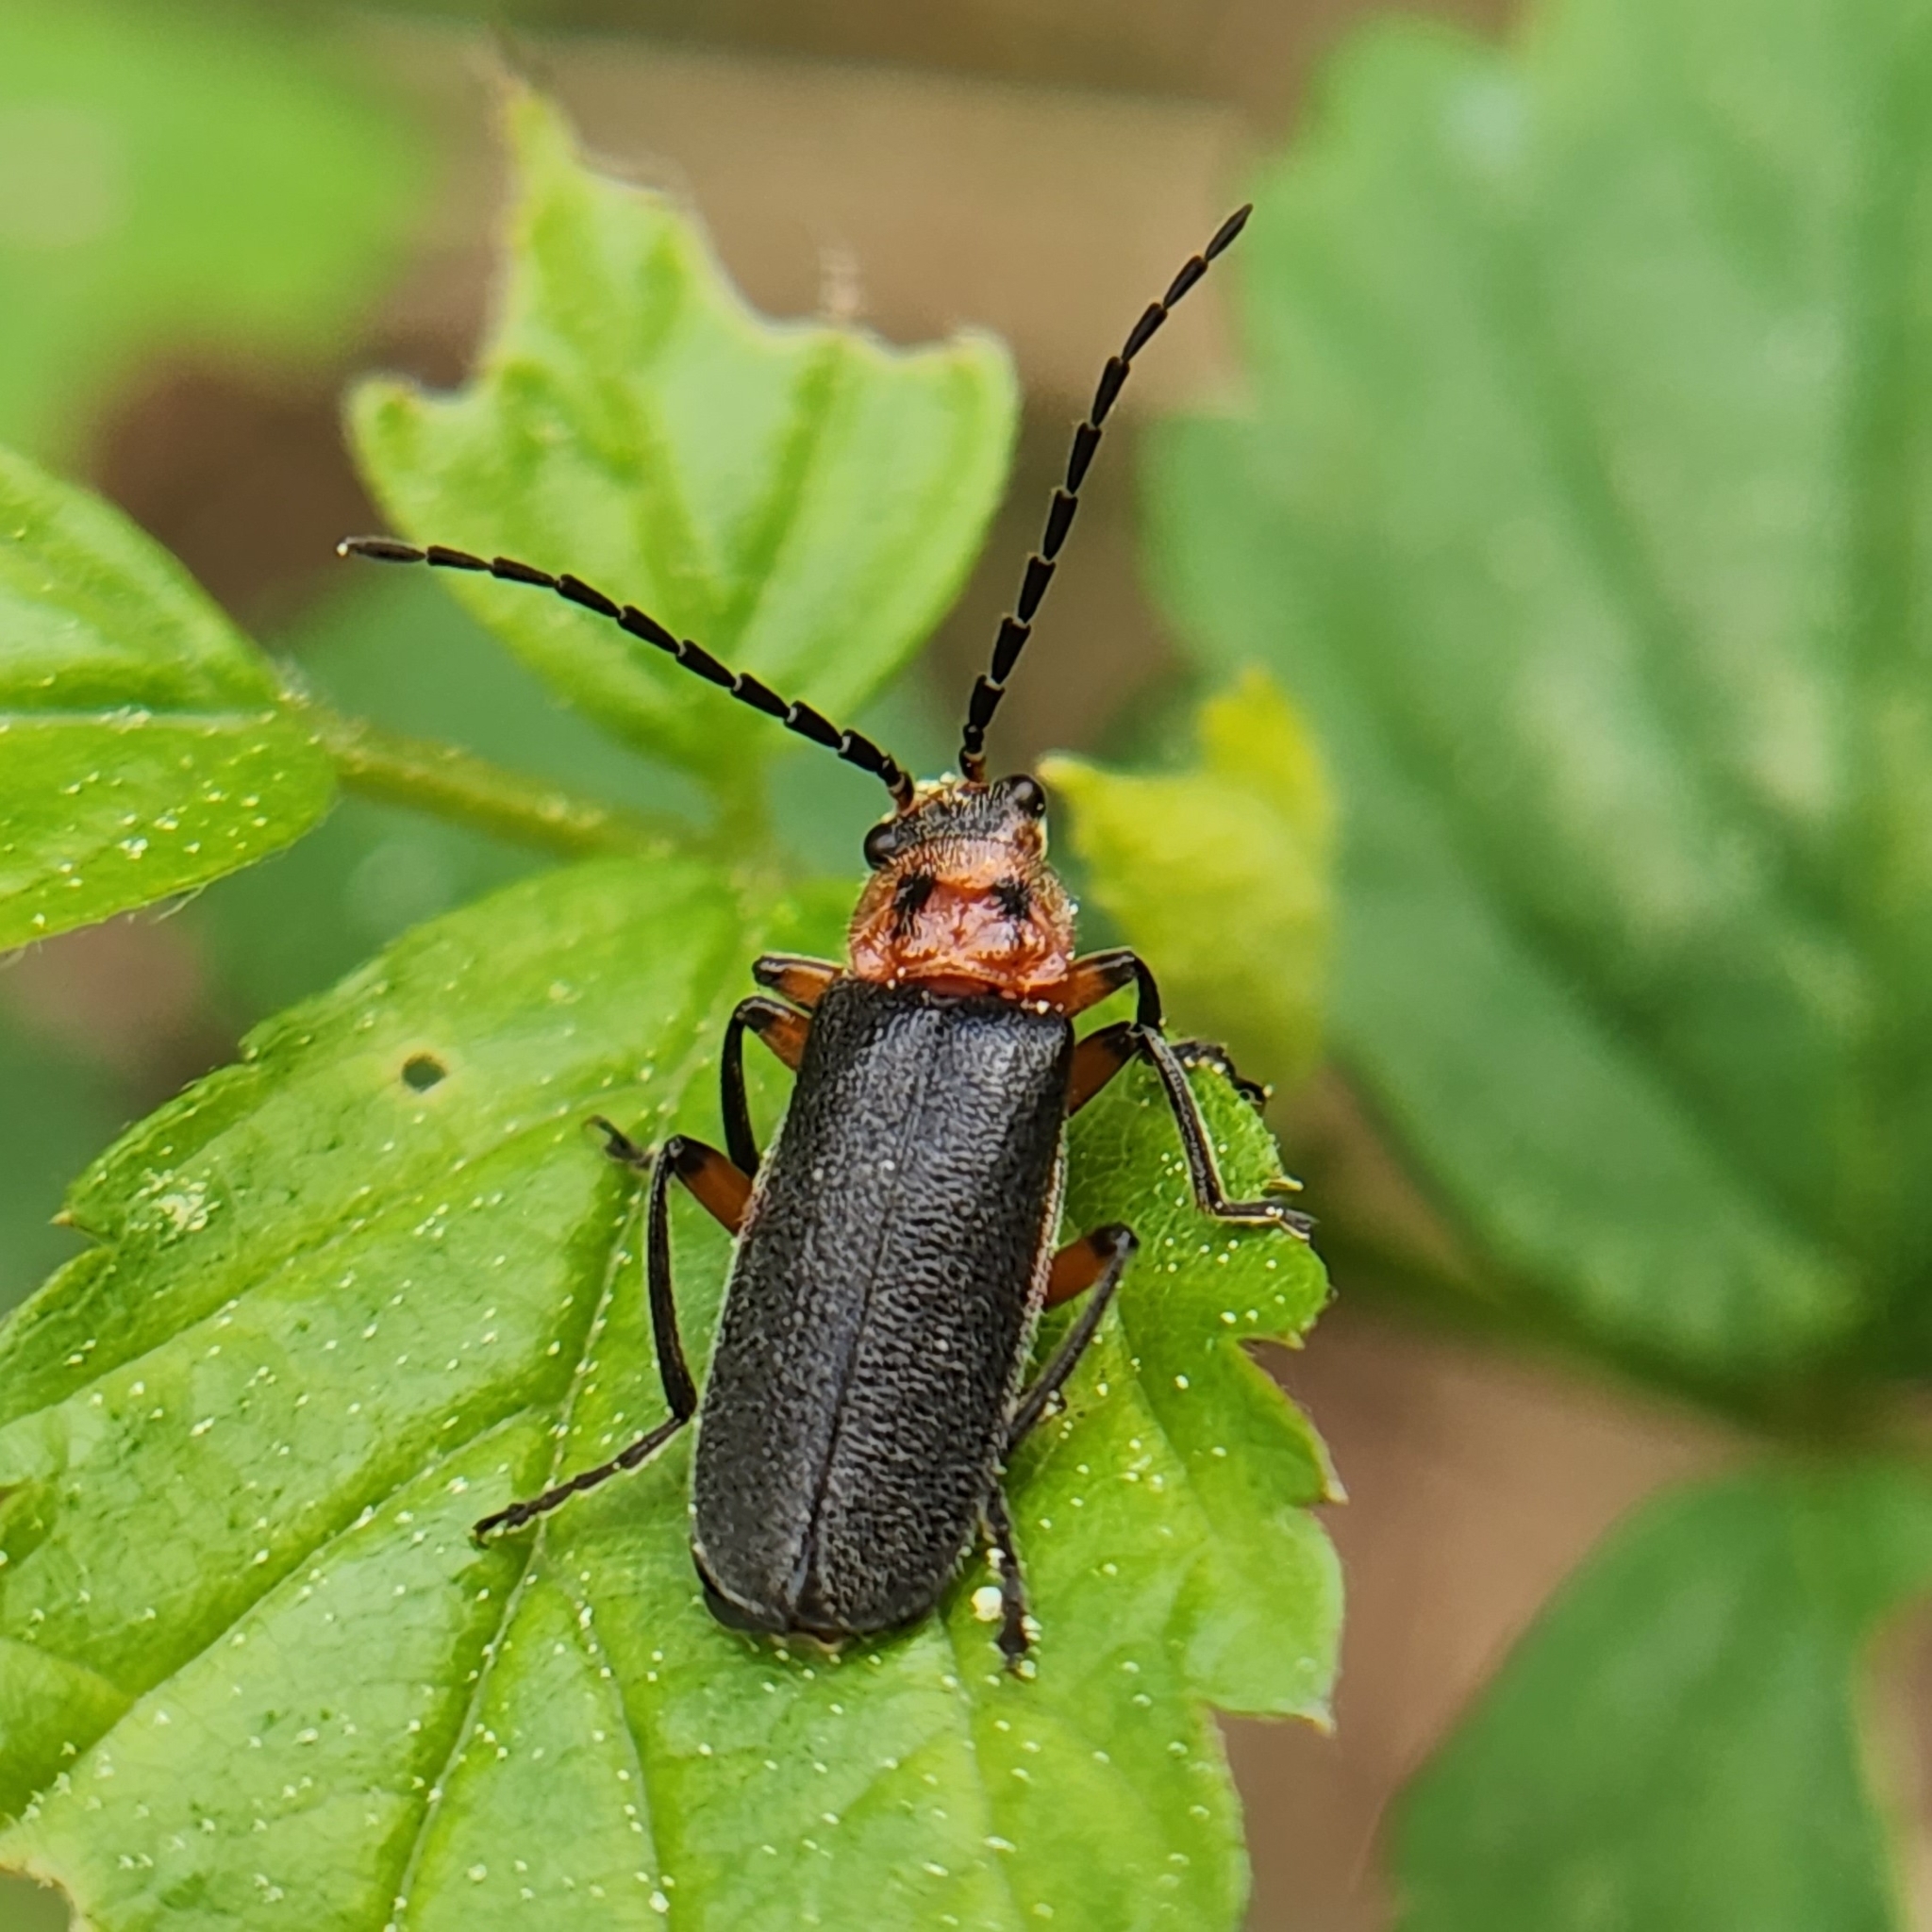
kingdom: Animalia
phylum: Arthropoda
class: Insecta
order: Coleoptera
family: Cantharidae
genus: Atalantycha
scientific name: Atalantycha bilineata
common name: Two-lined leatherwing
